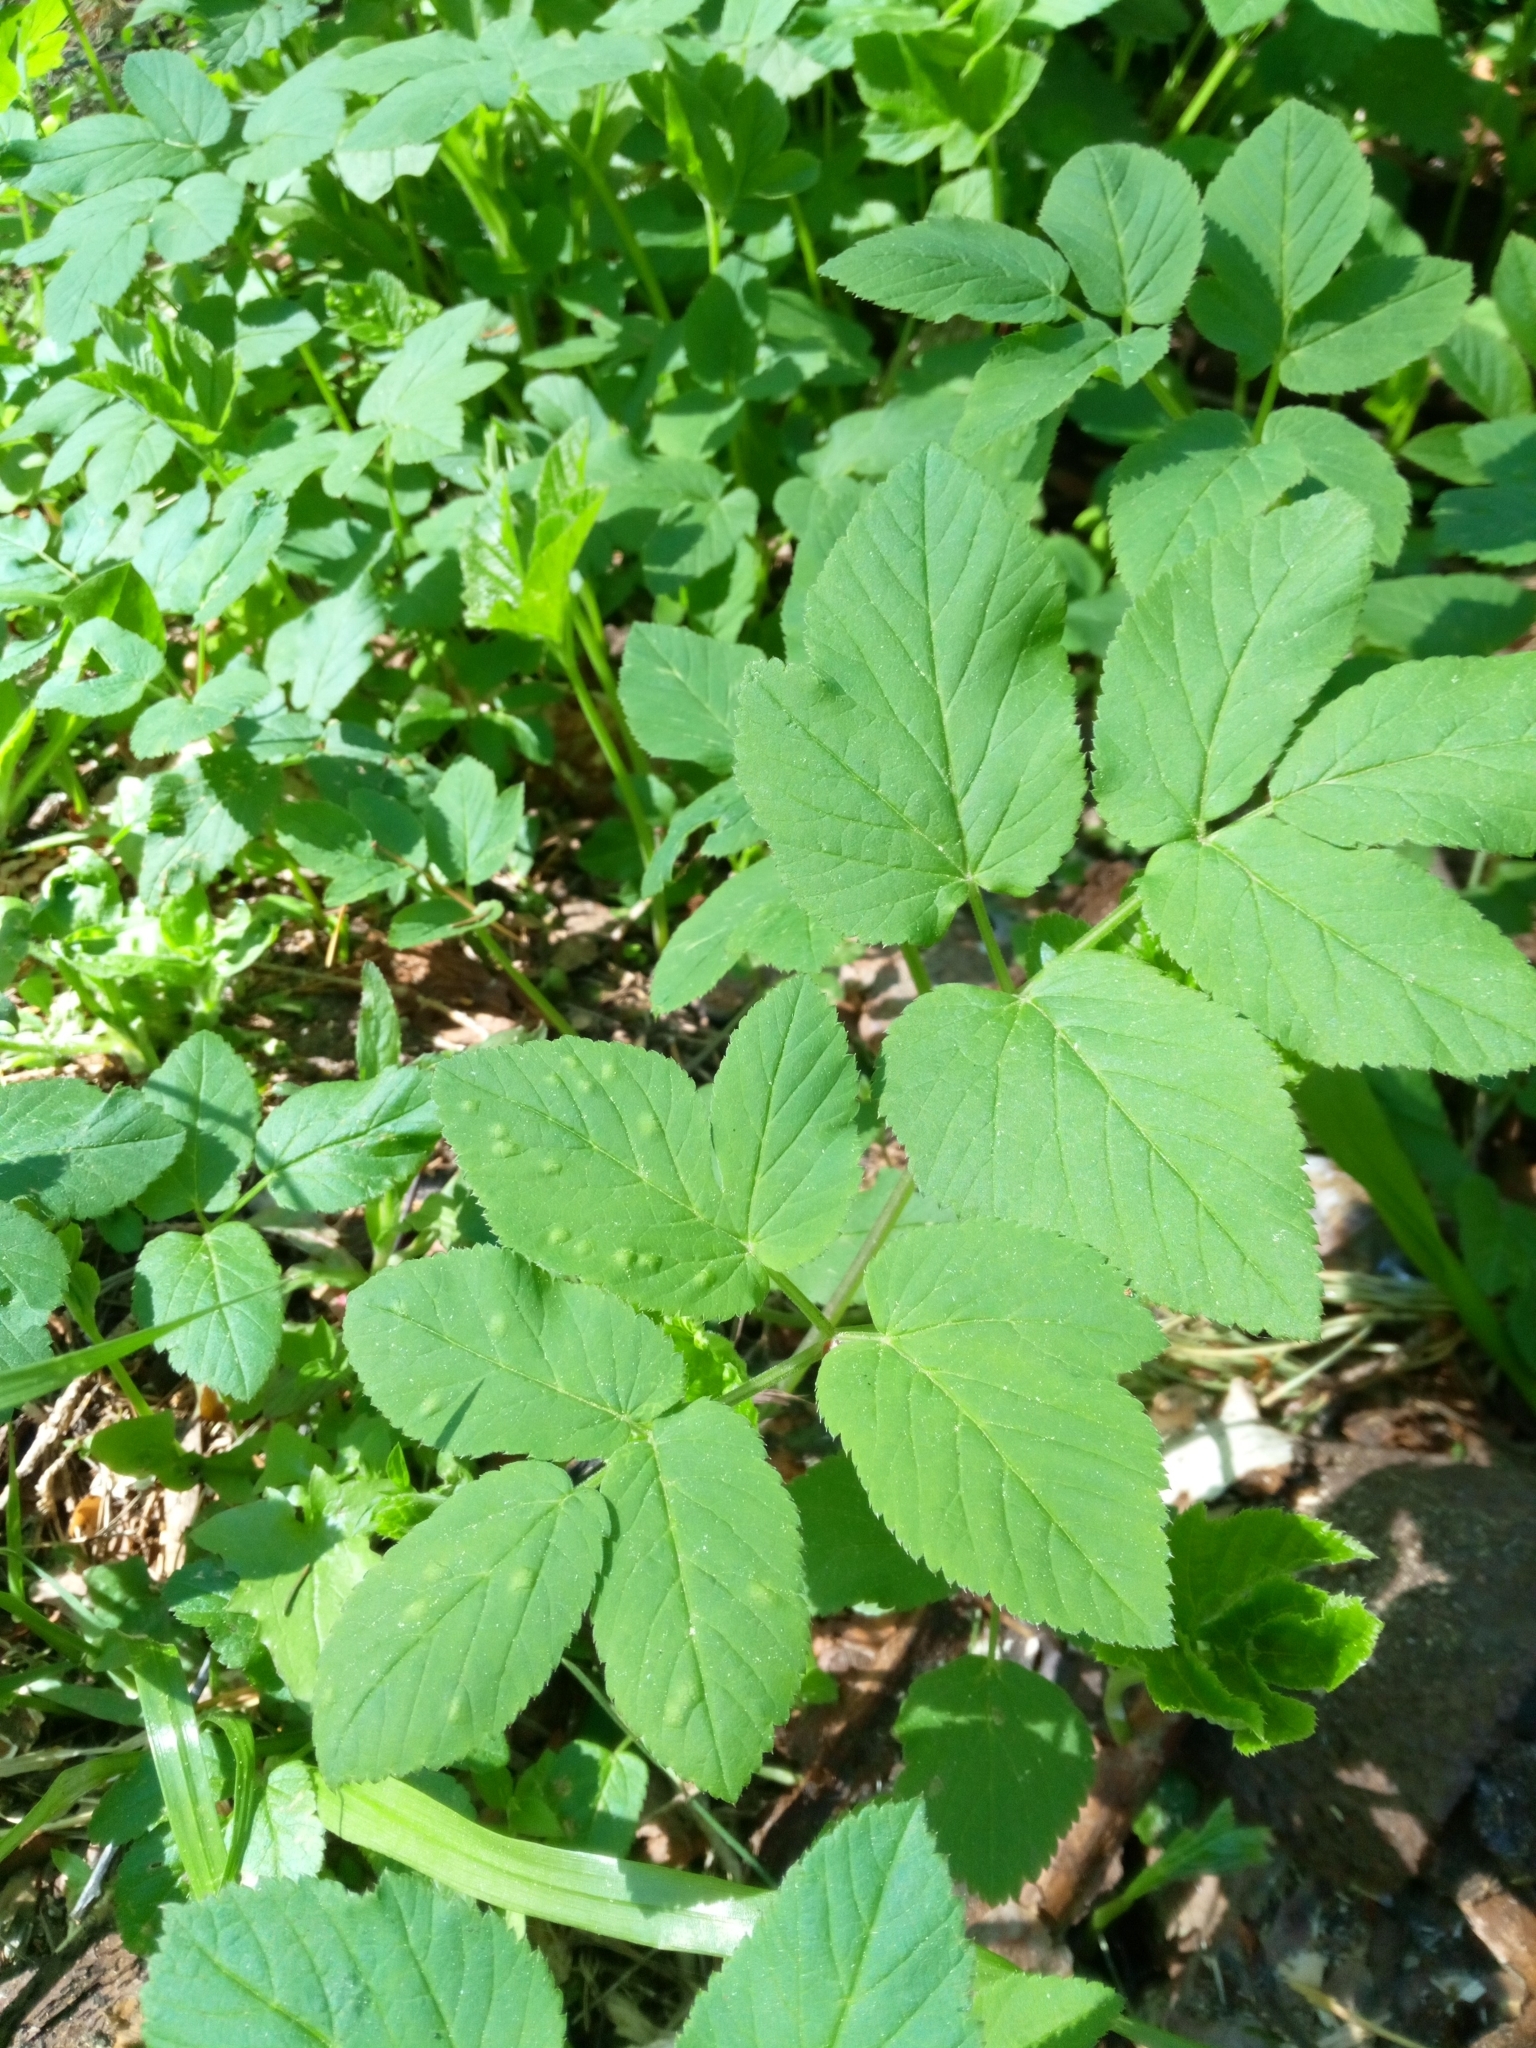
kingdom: Plantae
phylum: Tracheophyta
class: Magnoliopsida
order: Apiales
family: Apiaceae
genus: Aegopodium
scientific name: Aegopodium podagraria
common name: Ground-elder
